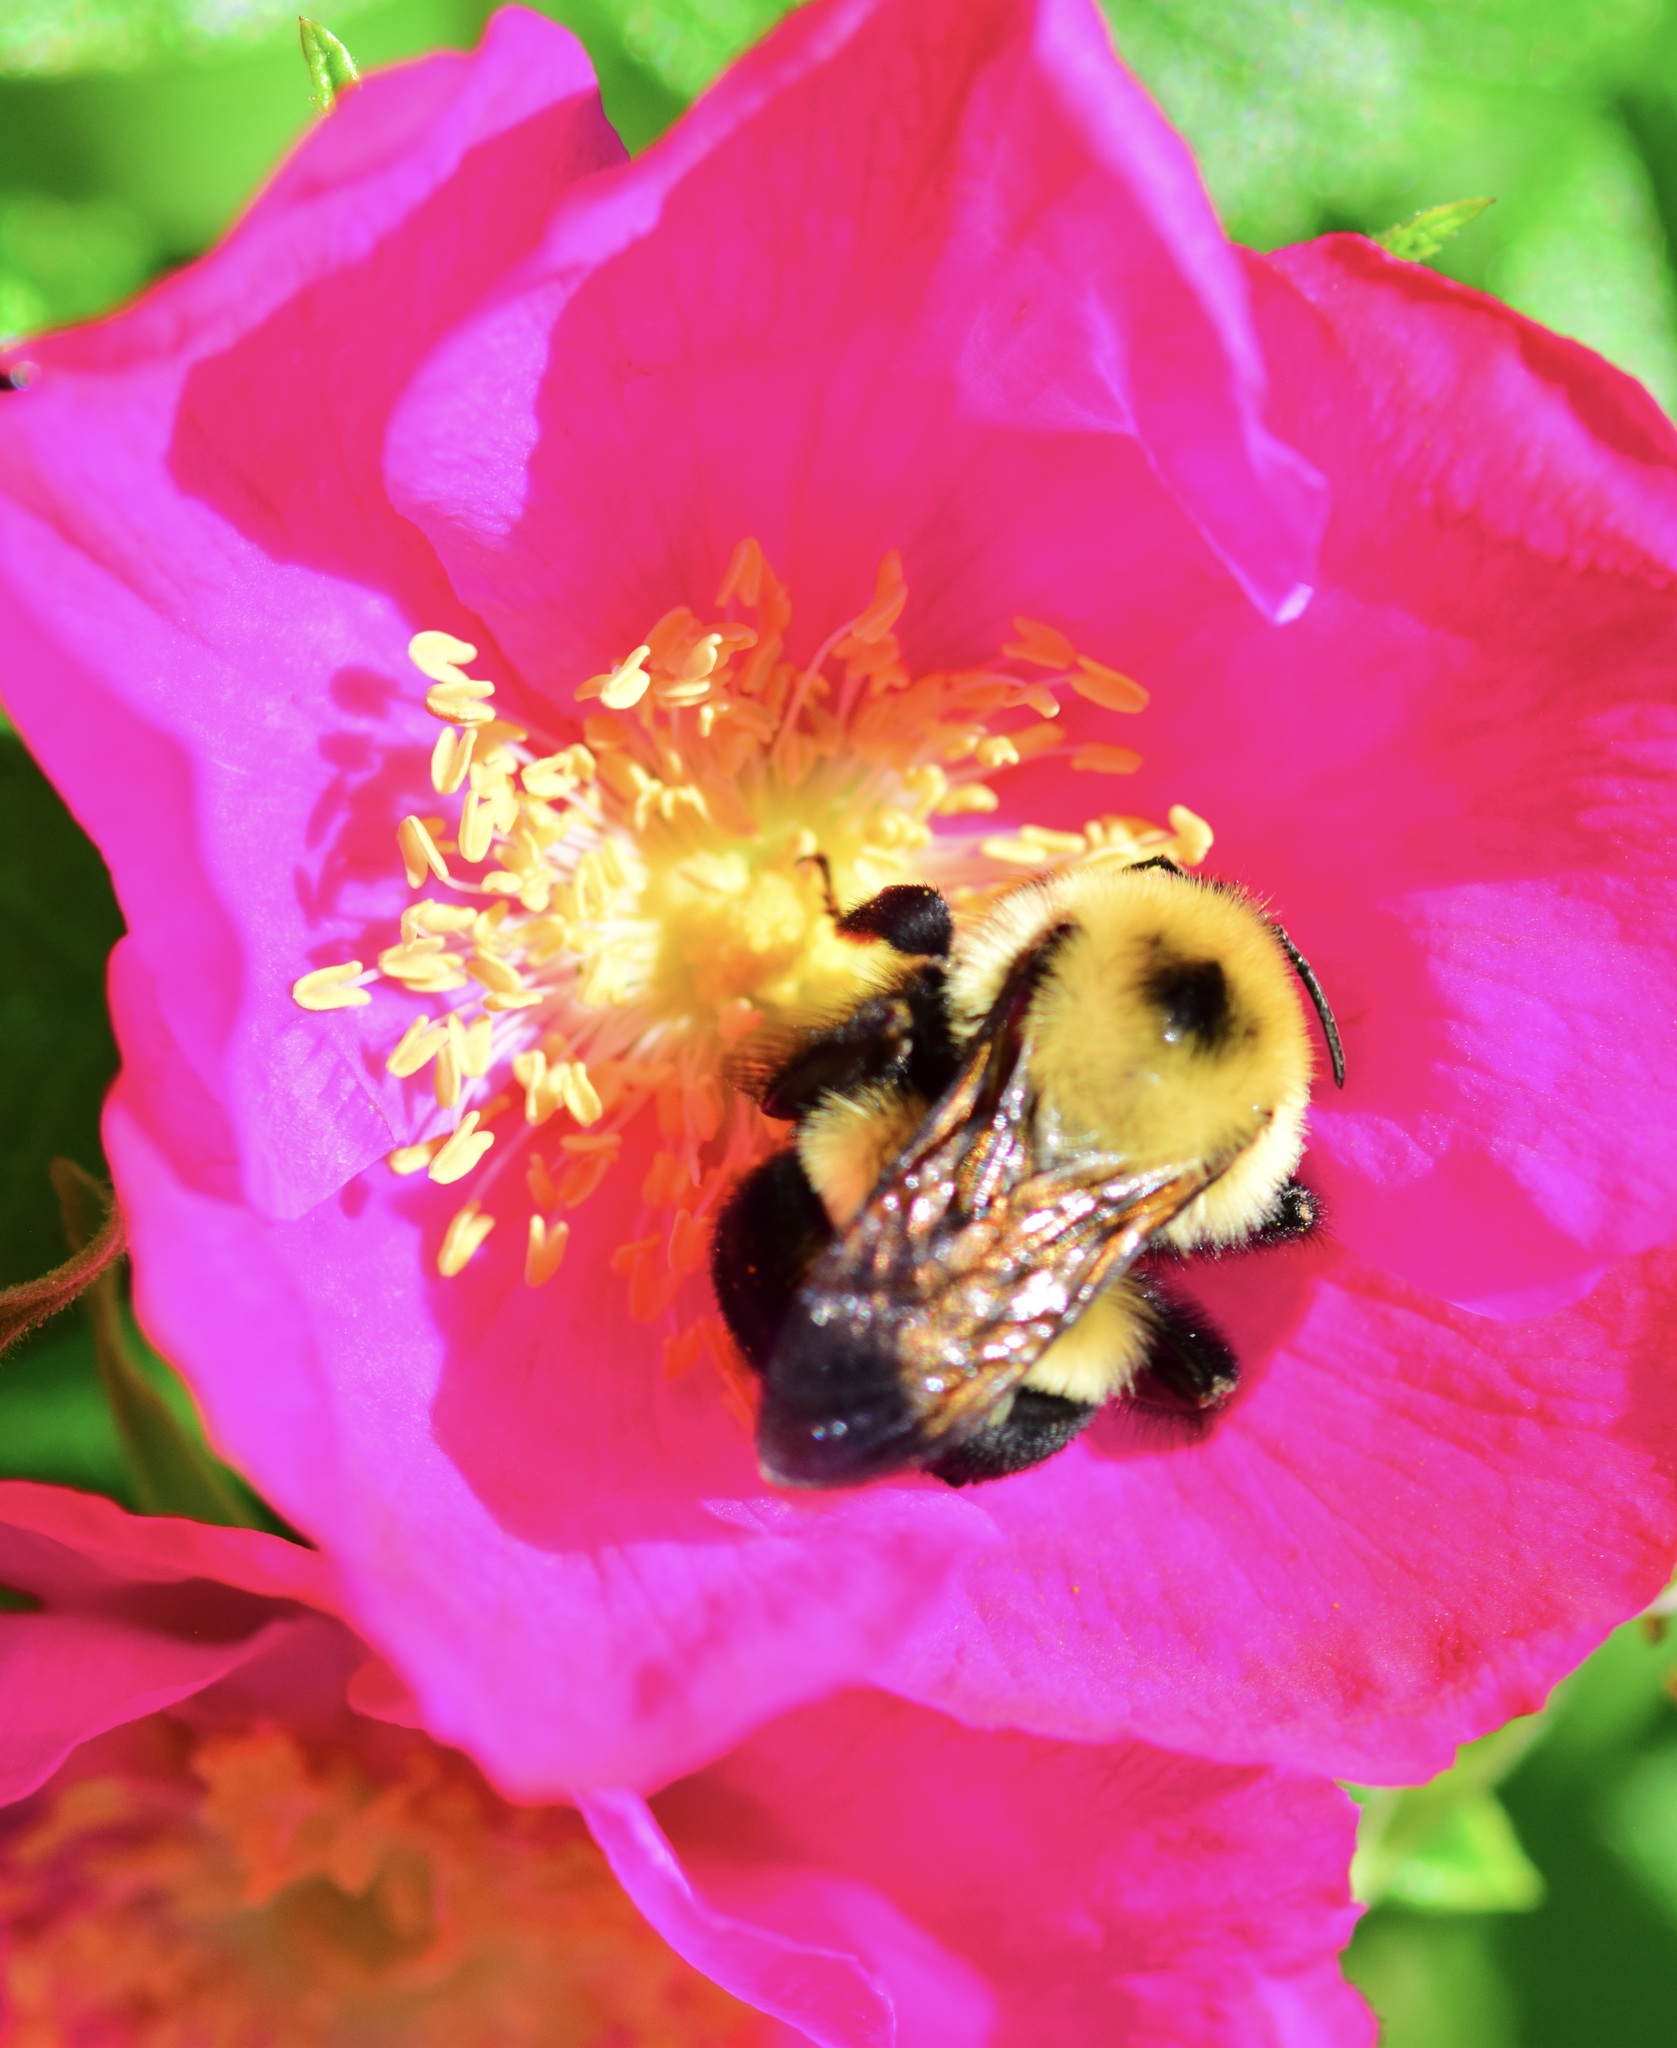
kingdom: Animalia
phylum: Arthropoda
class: Insecta
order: Hymenoptera
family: Apidae
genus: Bombus
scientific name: Bombus bimaculatus
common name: Two-spotted bumble bee
